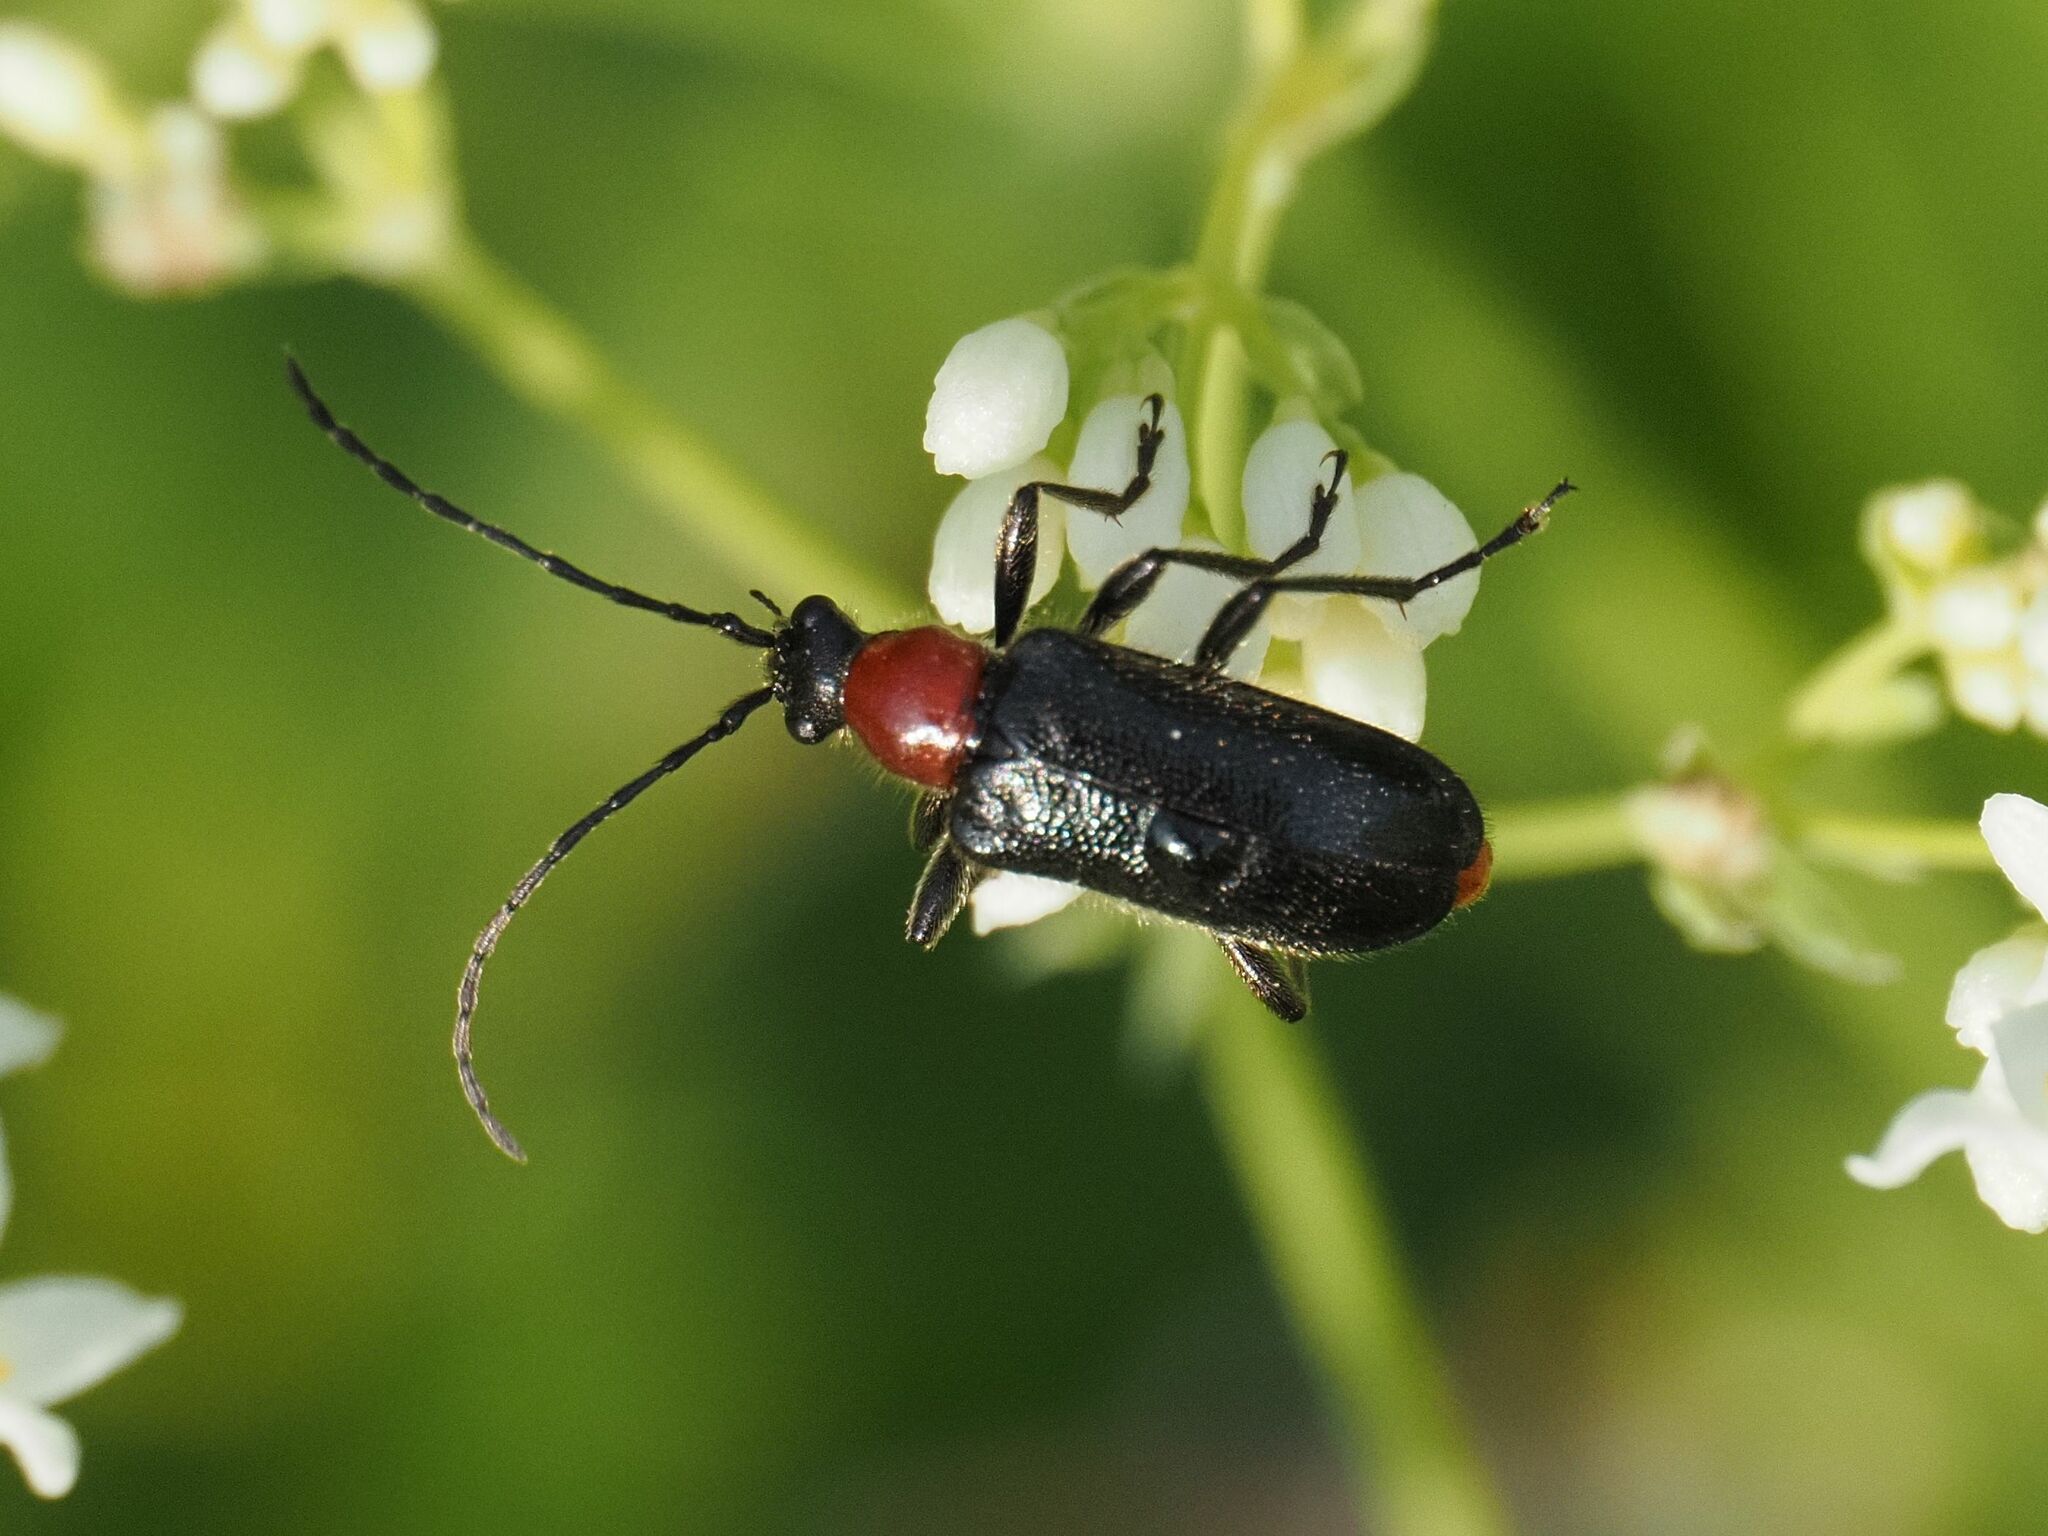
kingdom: Animalia
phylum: Arthropoda
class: Insecta
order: Coleoptera
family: Cerambycidae
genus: Dinoptera
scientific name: Dinoptera collaris
